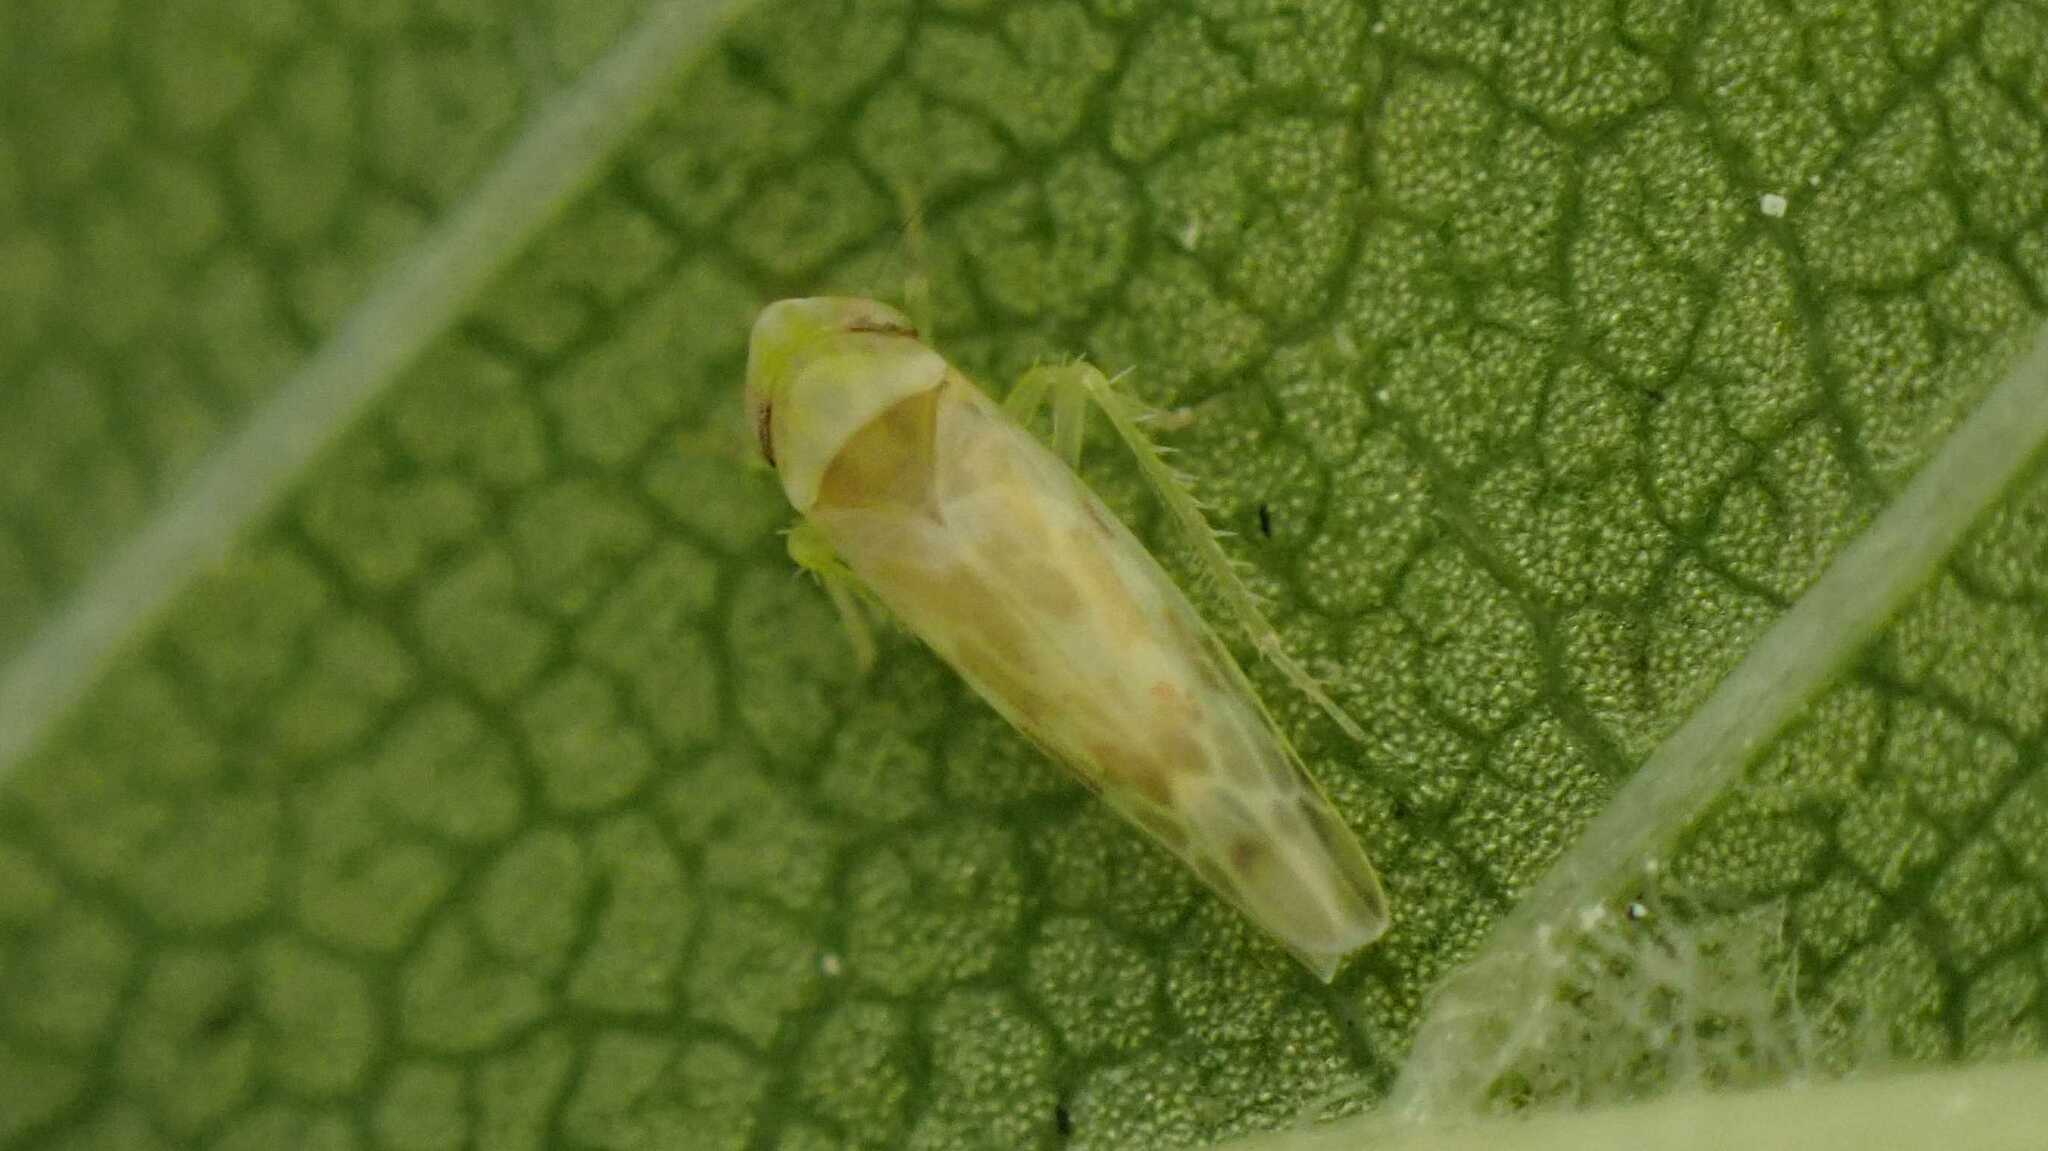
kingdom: Animalia
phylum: Arthropoda
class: Insecta
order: Hemiptera
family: Cicadellidae
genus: Tautoneura
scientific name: Tautoneura polymitusa
